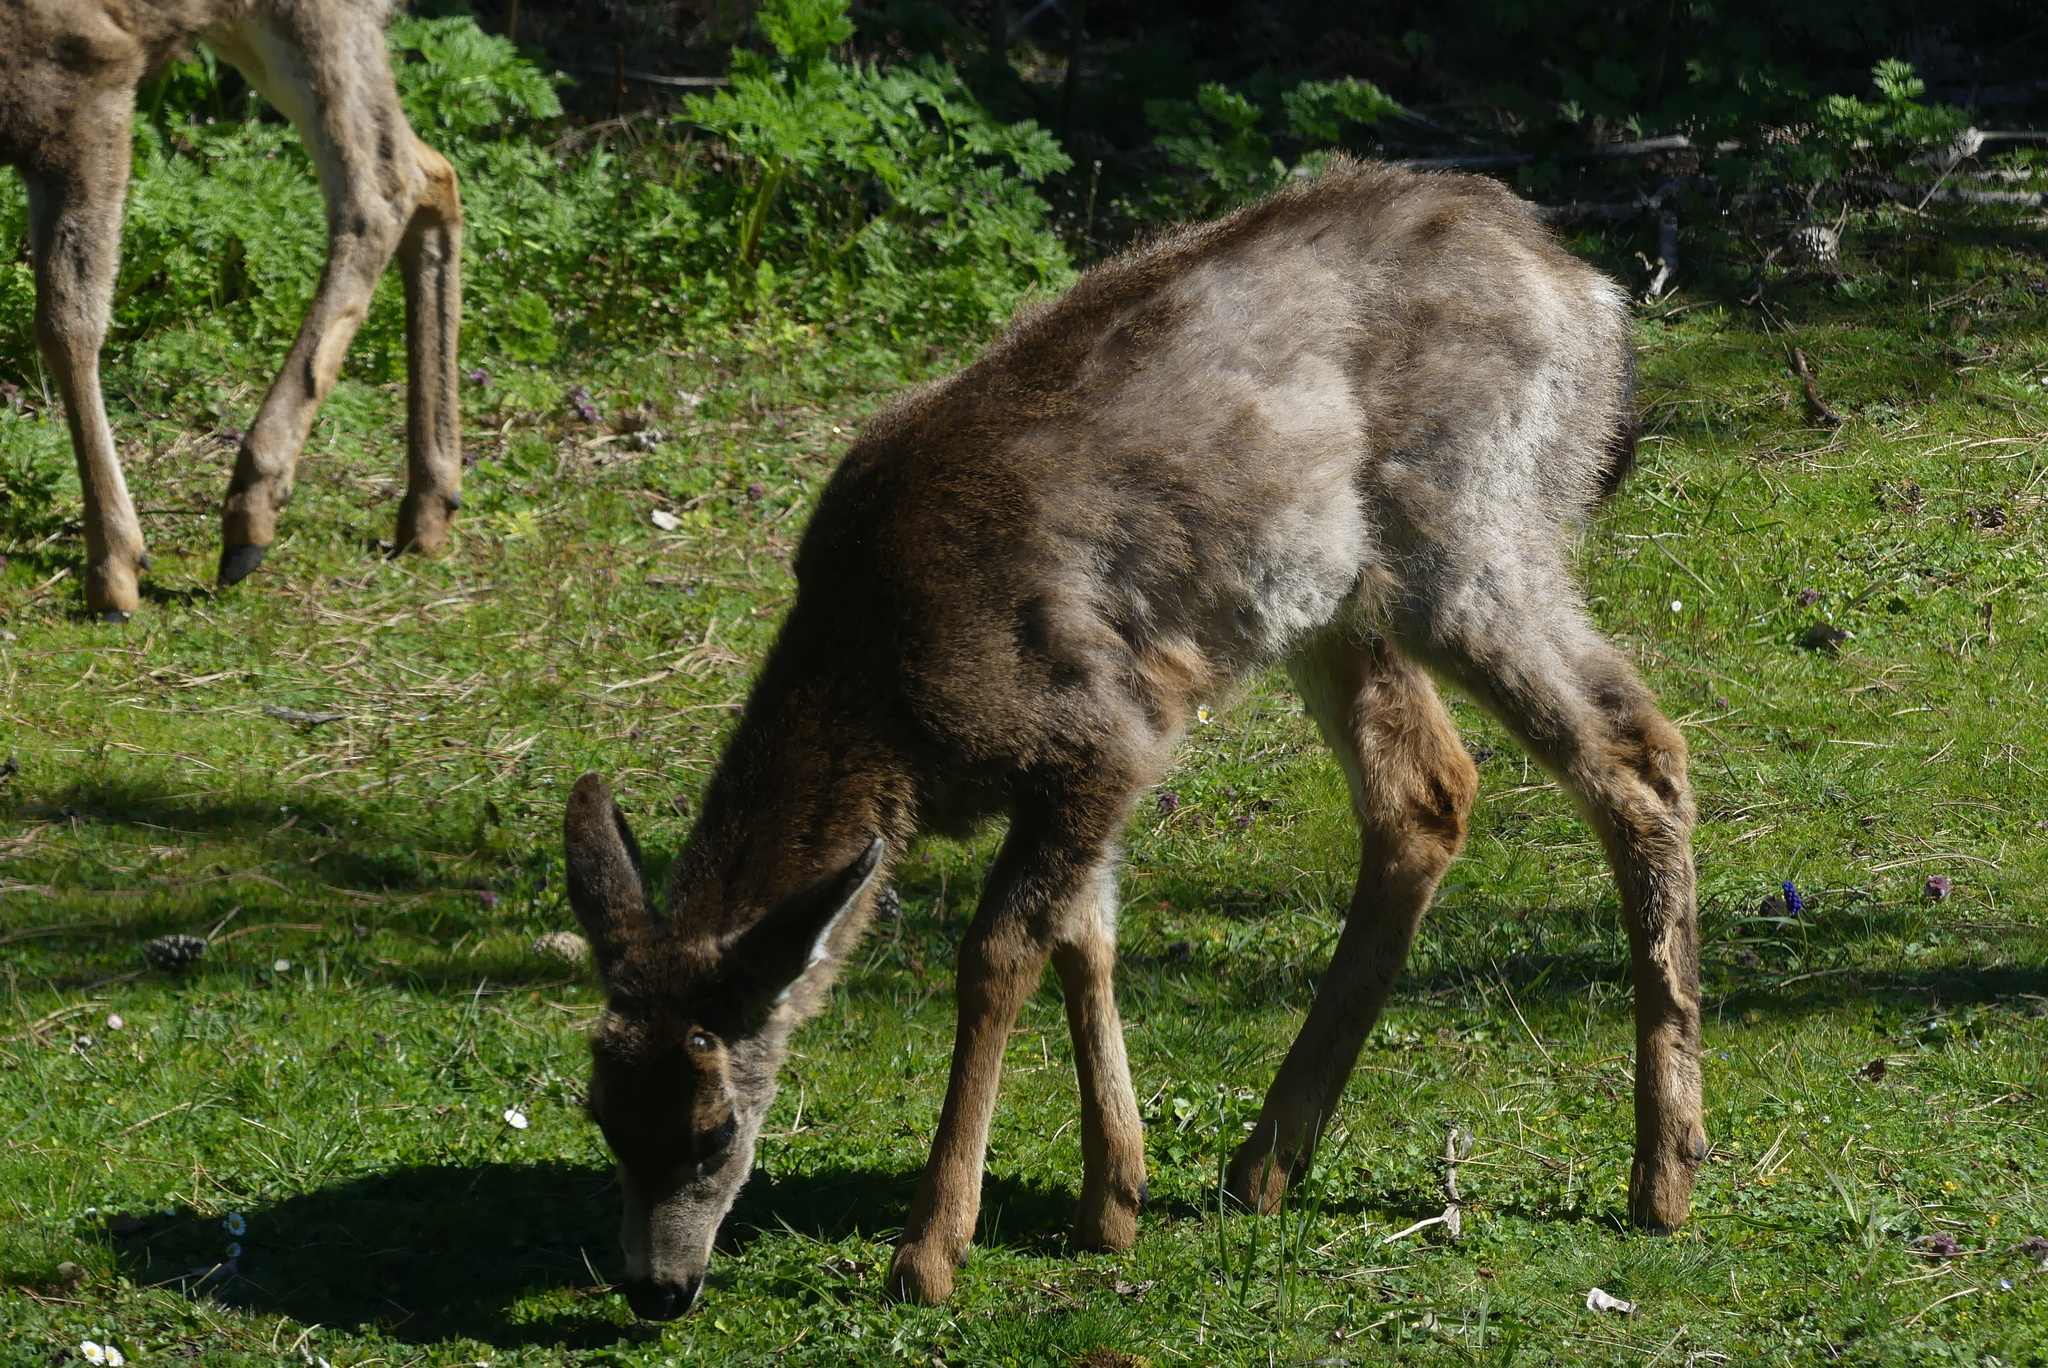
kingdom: Animalia
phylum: Chordata
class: Mammalia
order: Artiodactyla
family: Cervidae
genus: Odocoileus
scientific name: Odocoileus hemionus
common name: Mule deer
